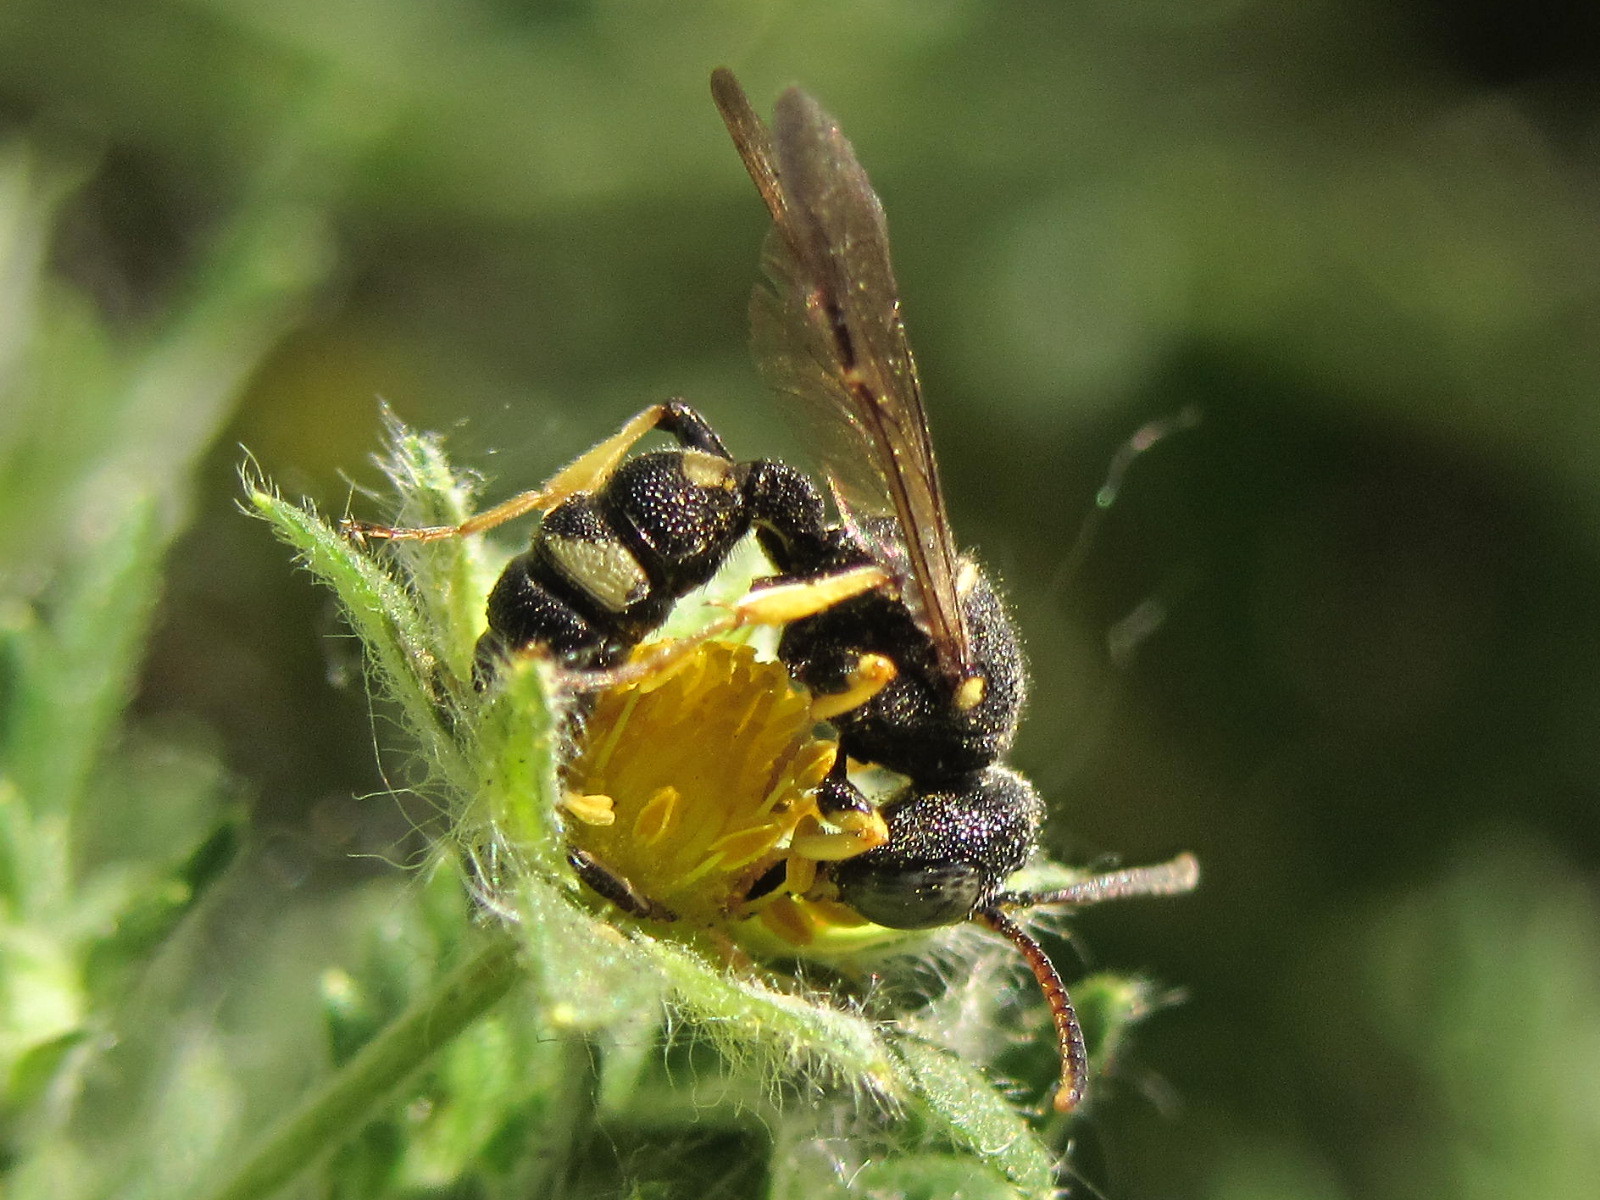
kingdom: Animalia
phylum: Arthropoda
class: Insecta
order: Hymenoptera
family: Crabronidae
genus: Cerceris
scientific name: Cerceris rybyensis
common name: Ornate tailed digger wasp
